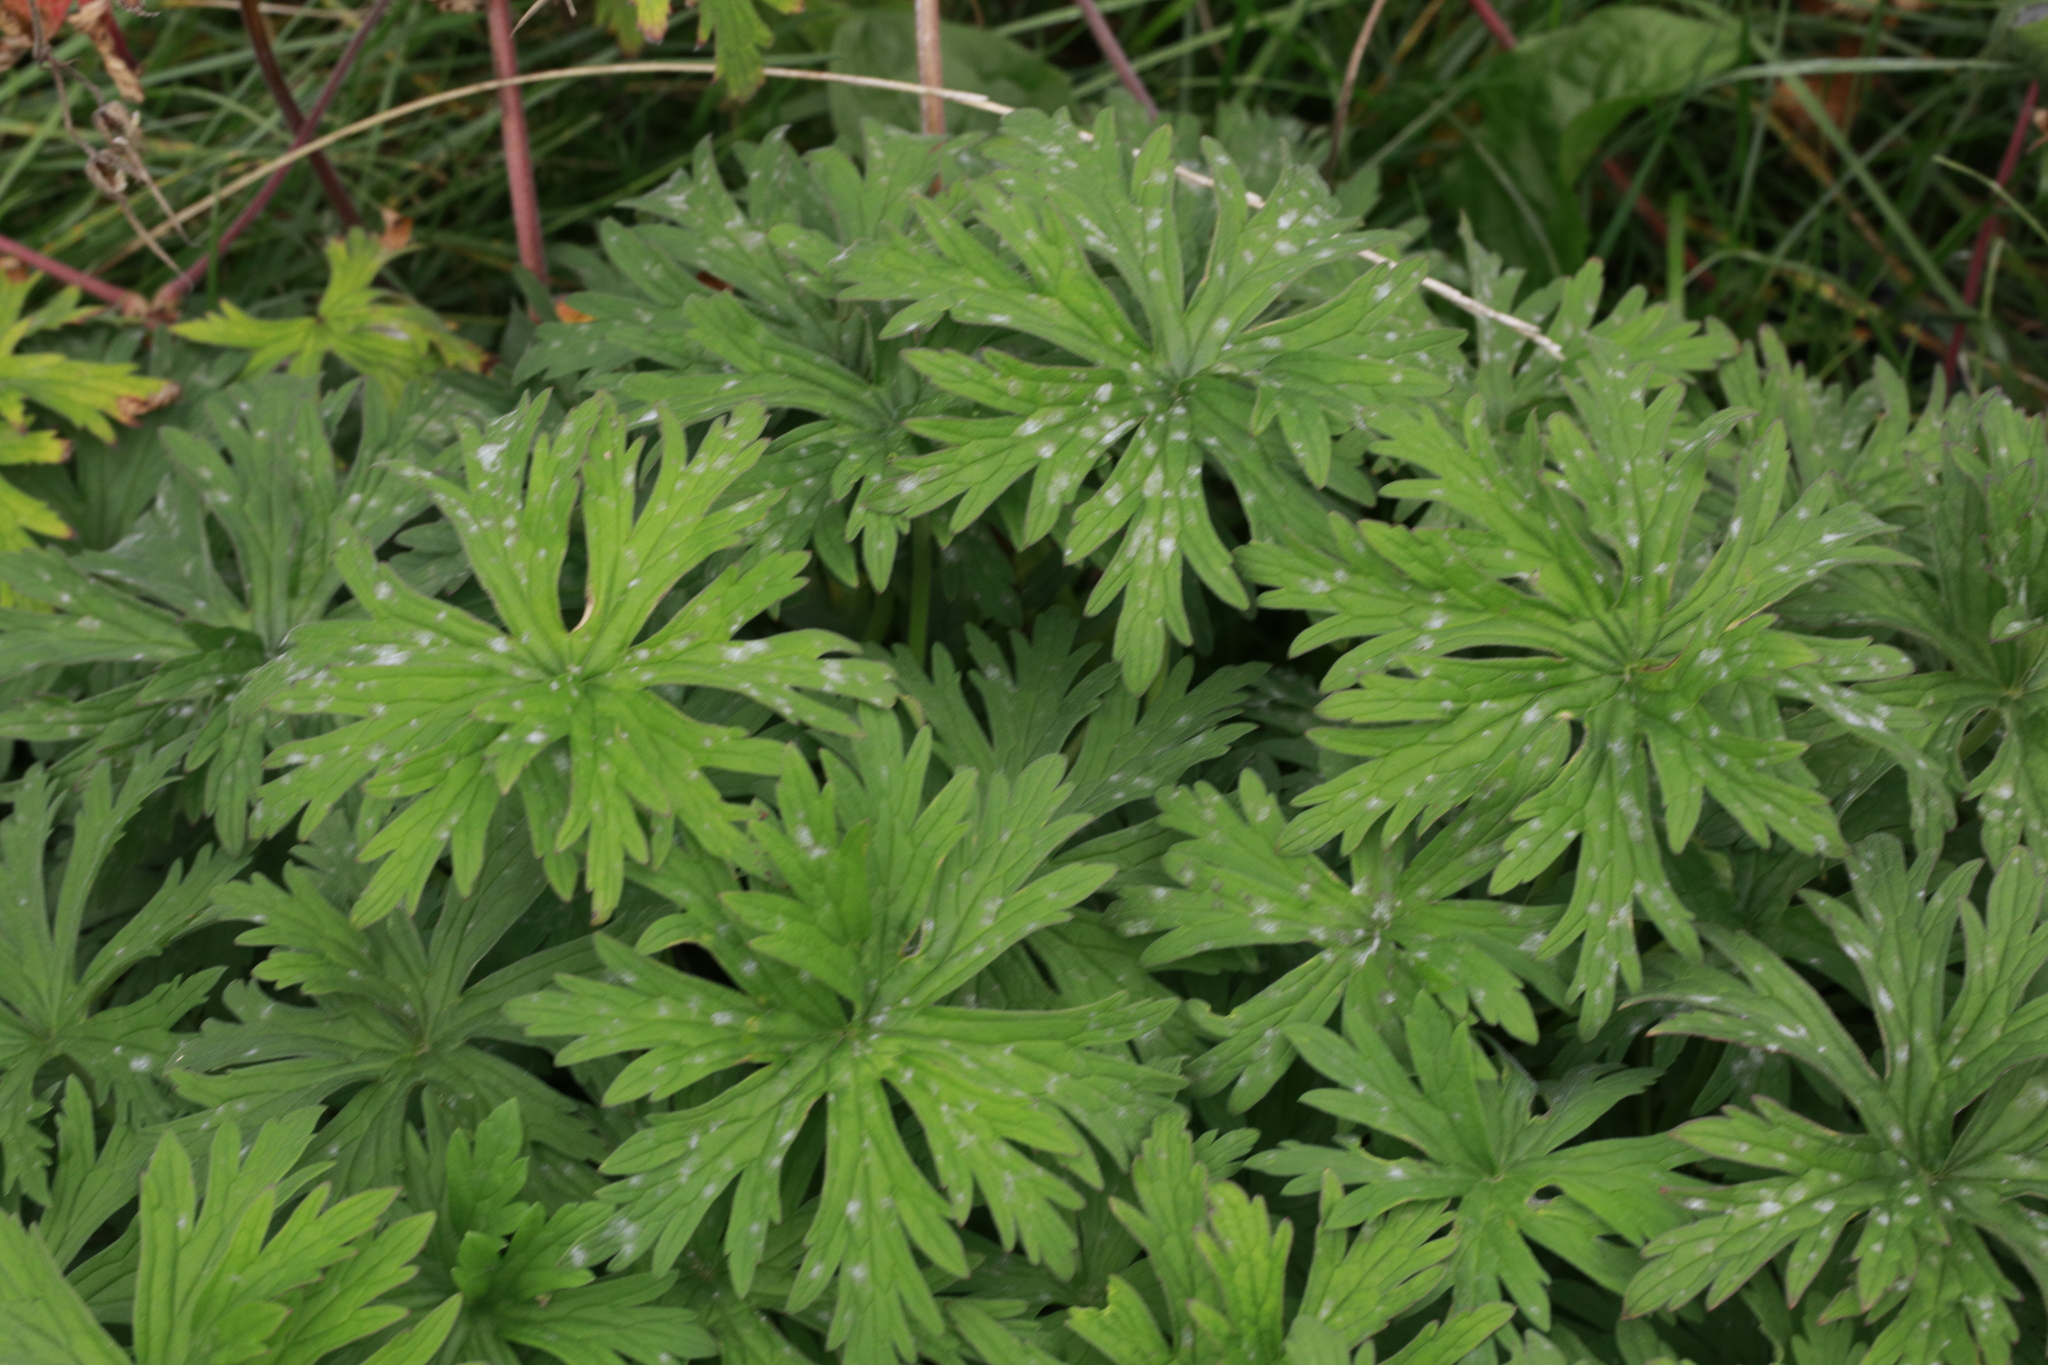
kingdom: Plantae
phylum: Tracheophyta
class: Magnoliopsida
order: Geraniales
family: Geraniaceae
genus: Geranium
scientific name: Geranium pratense
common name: Meadow crane's-bill
